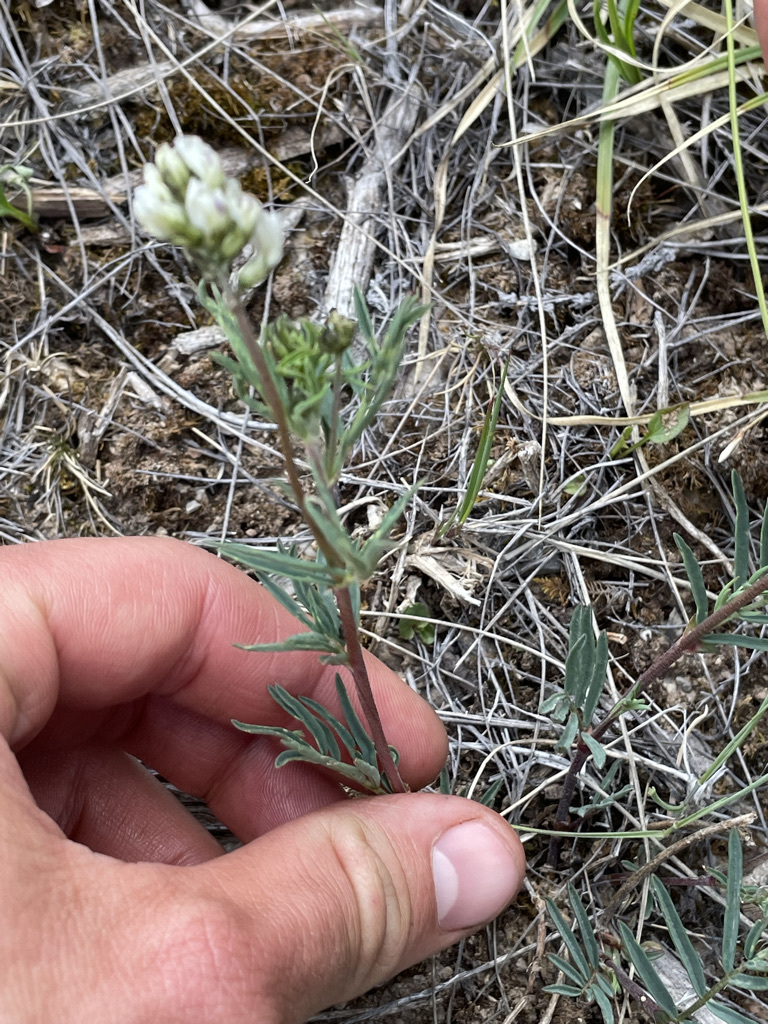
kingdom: Plantae
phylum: Tracheophyta
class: Magnoliopsida
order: Fabales
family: Fabaceae
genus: Astragalus
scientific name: Astragalus australis
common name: Indian milk-vetch
